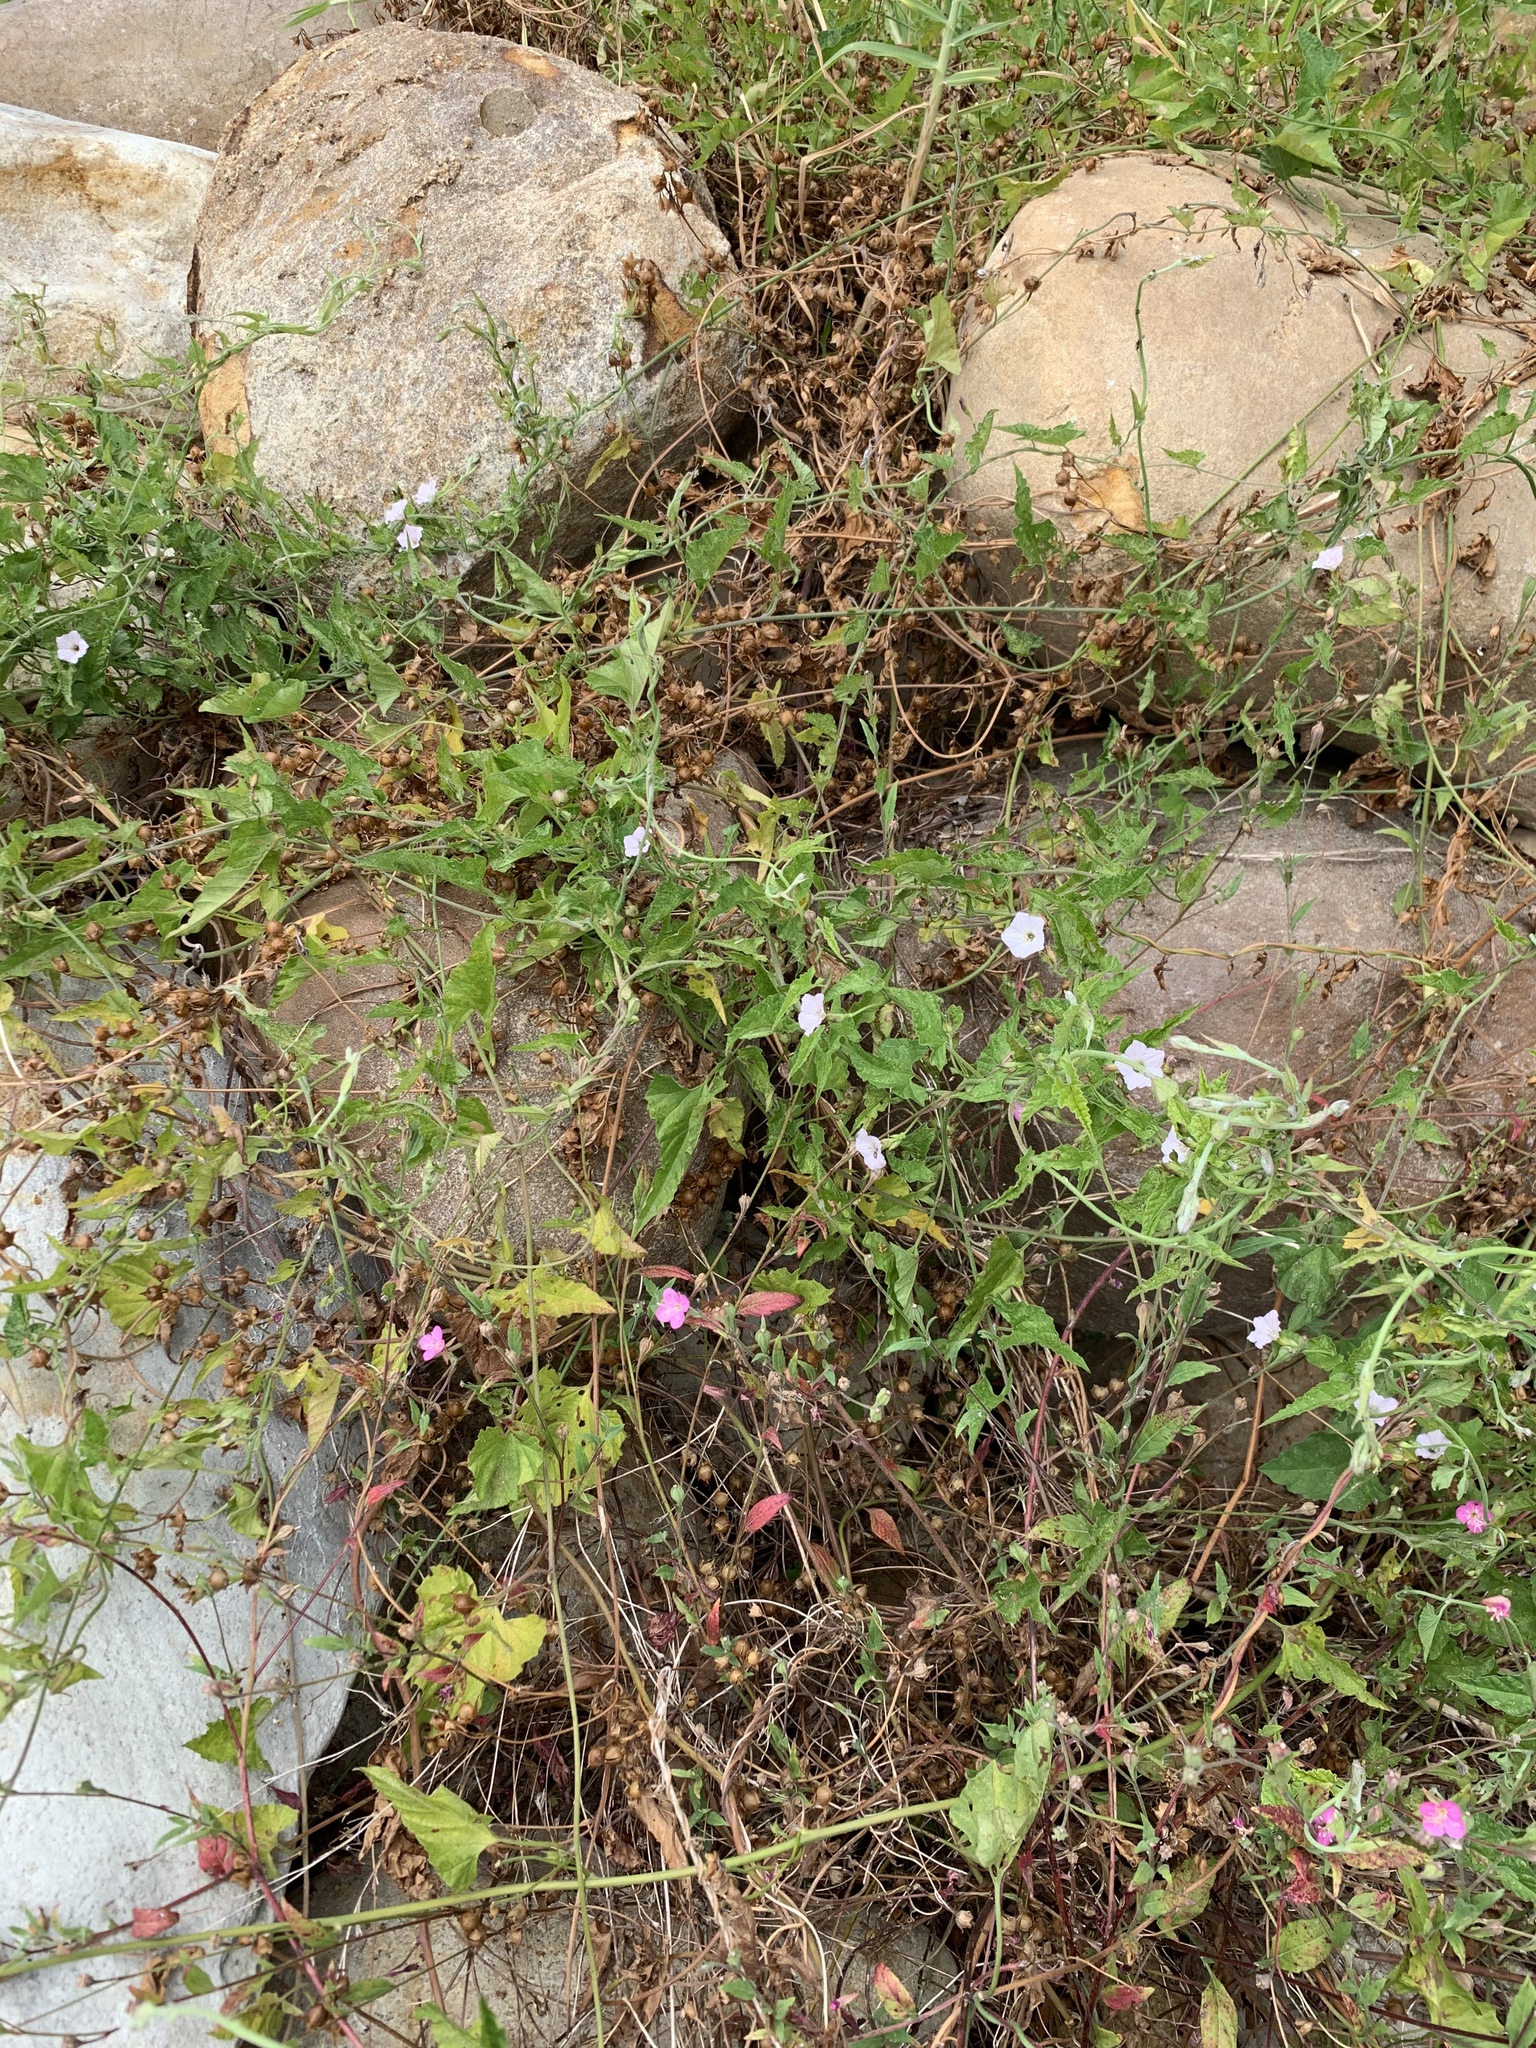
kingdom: Plantae
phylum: Tracheophyta
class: Magnoliopsida
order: Solanales
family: Convolvulaceae
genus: Convolvulus
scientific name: Convolvulus farinosus
